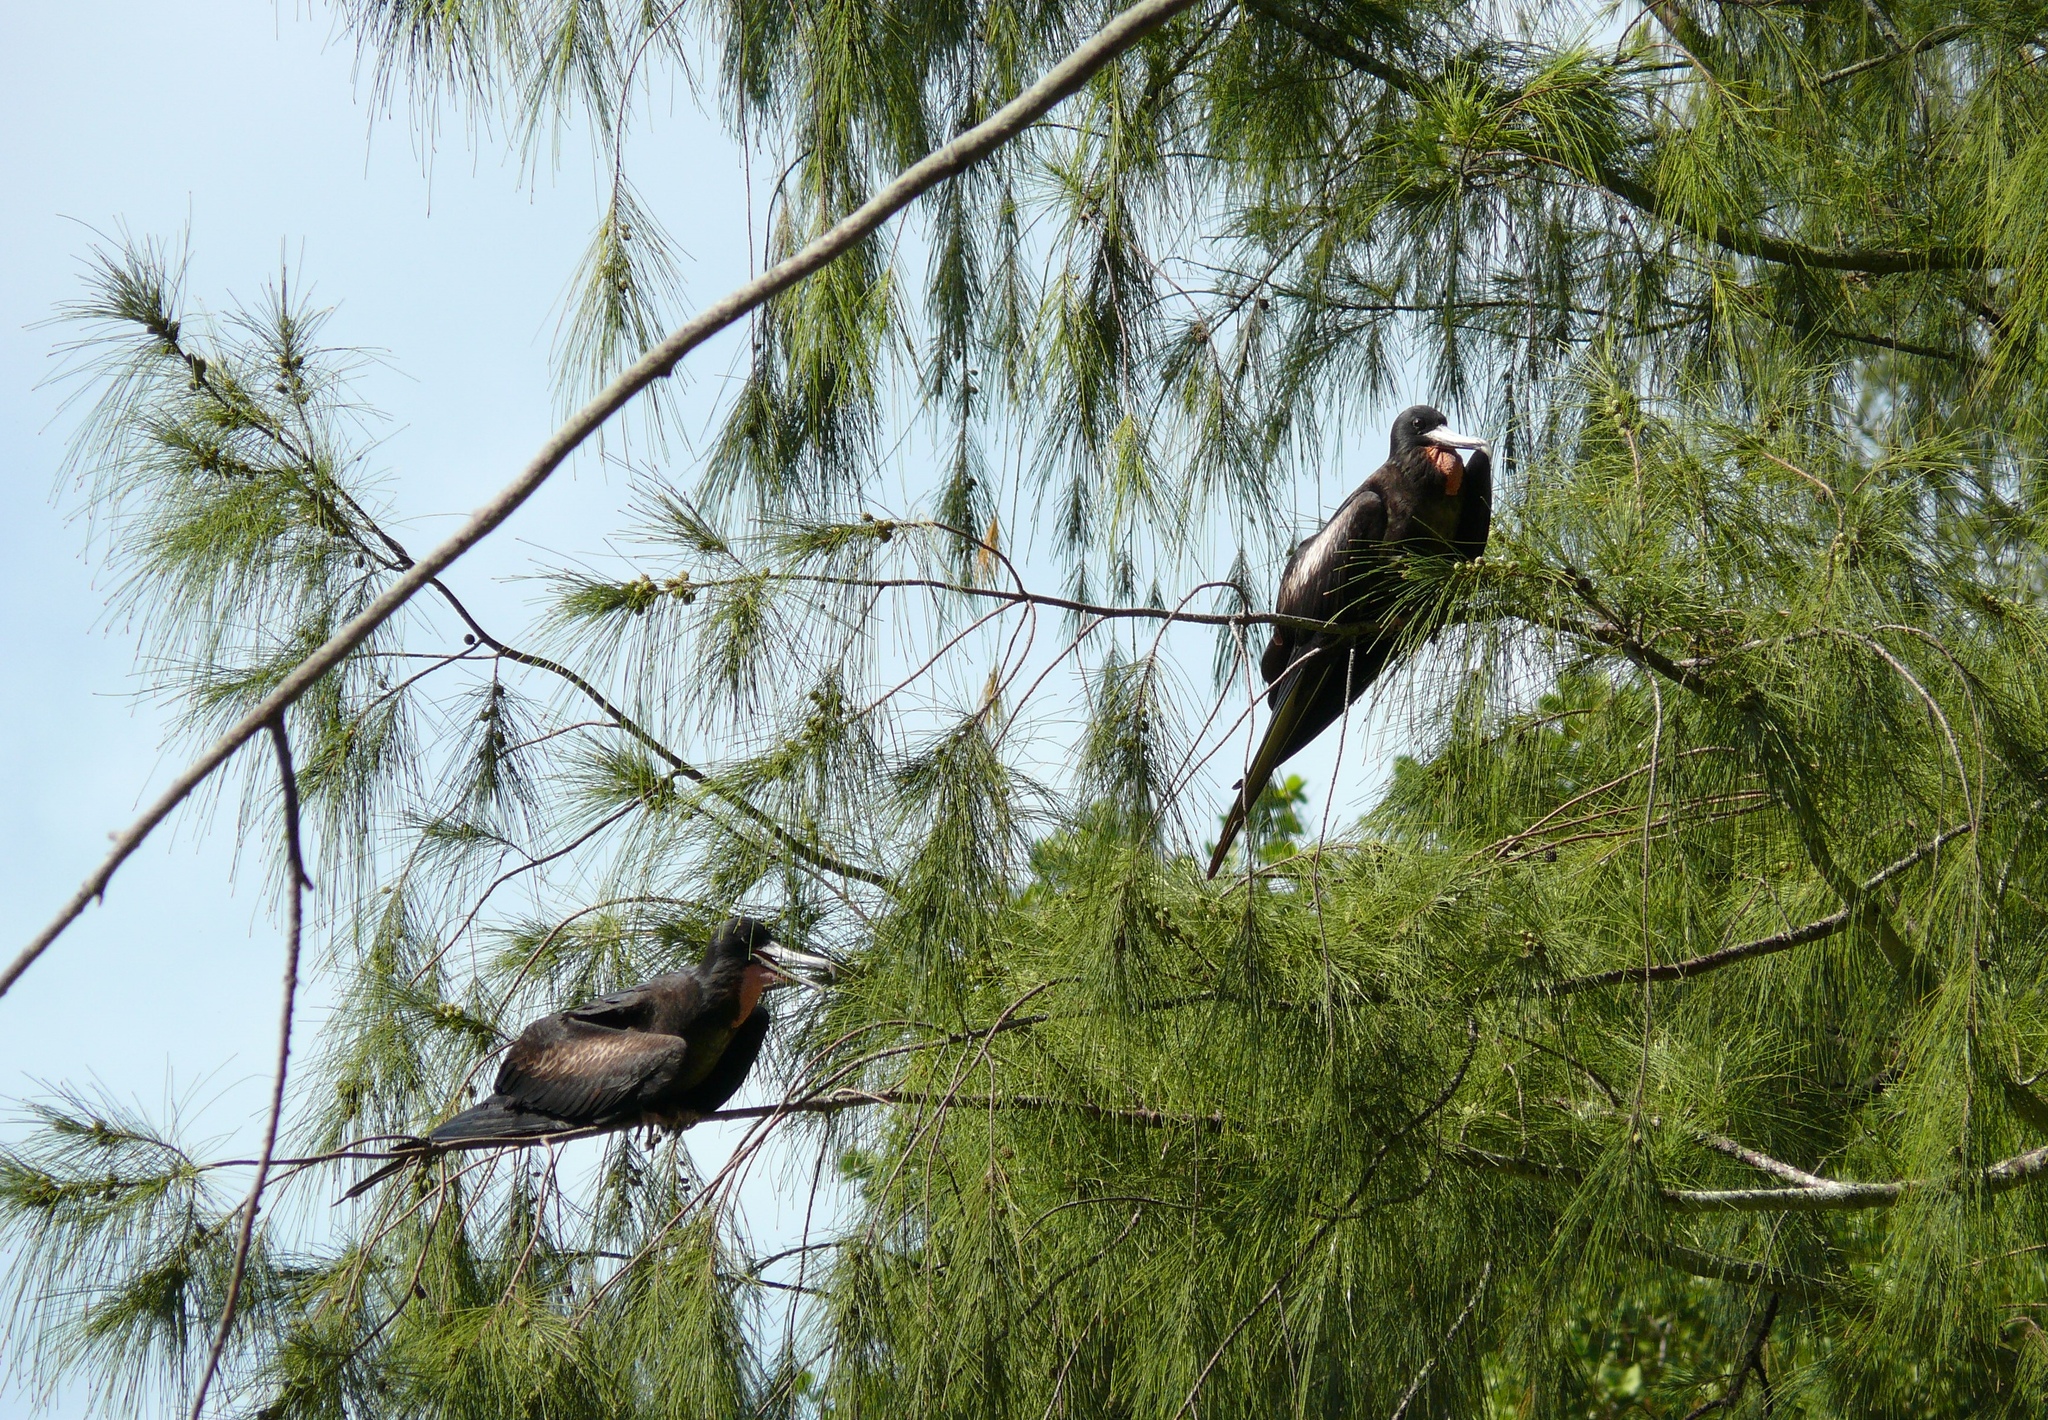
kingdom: Animalia
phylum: Chordata
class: Aves
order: Suliformes
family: Fregatidae
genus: Fregata
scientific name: Fregata minor
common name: Great frigatebird
